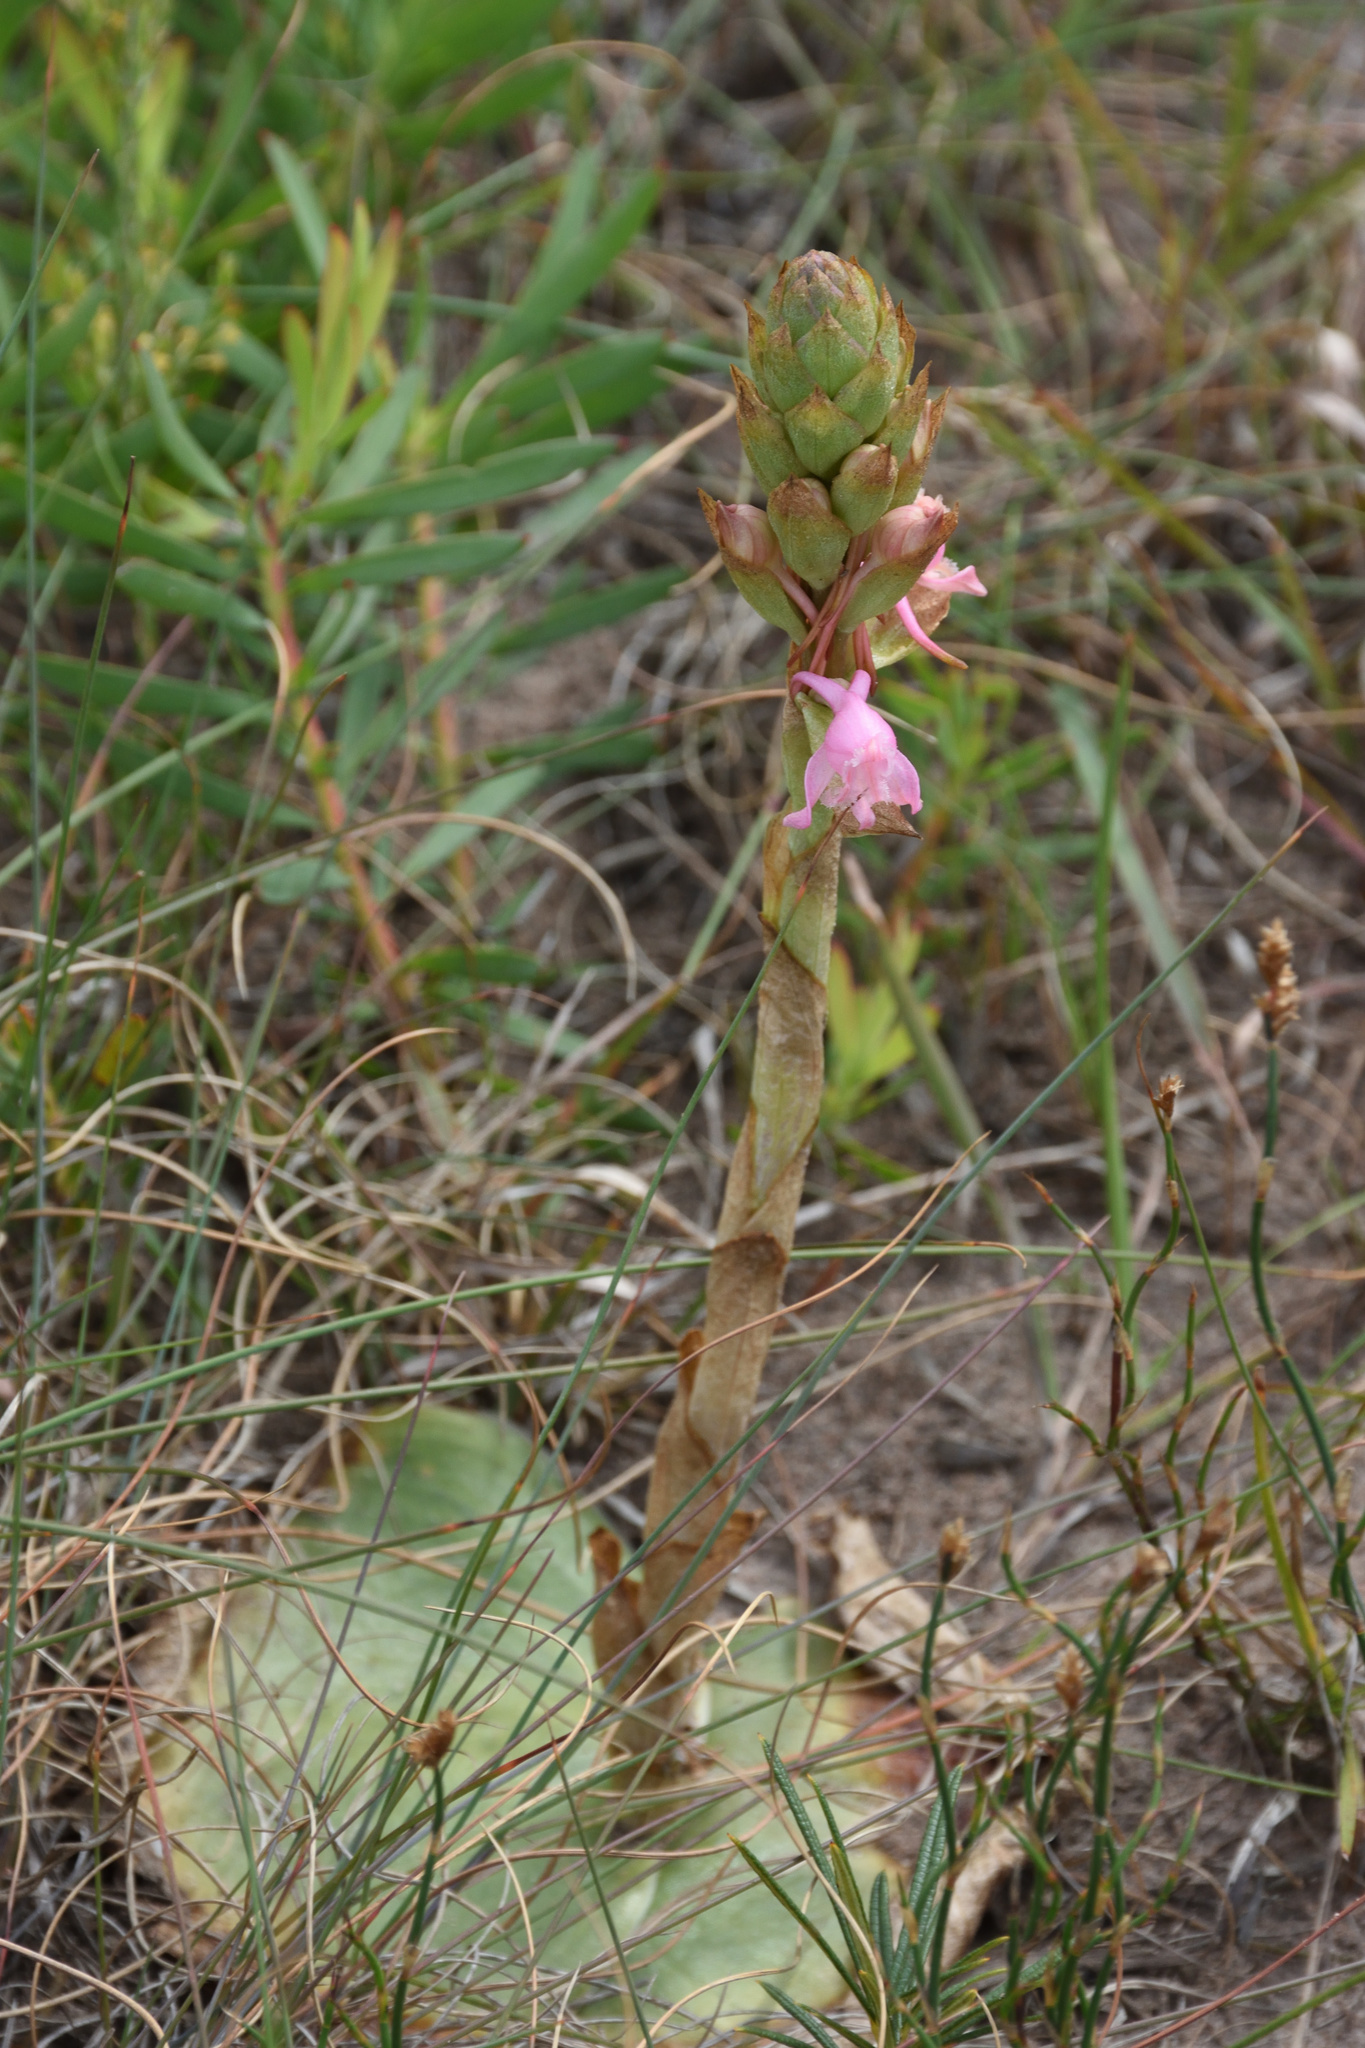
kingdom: Plantae
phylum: Tracheophyta
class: Liliopsida
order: Asparagales
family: Orchidaceae
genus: Satyrium
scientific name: Satyrium membranaceum
